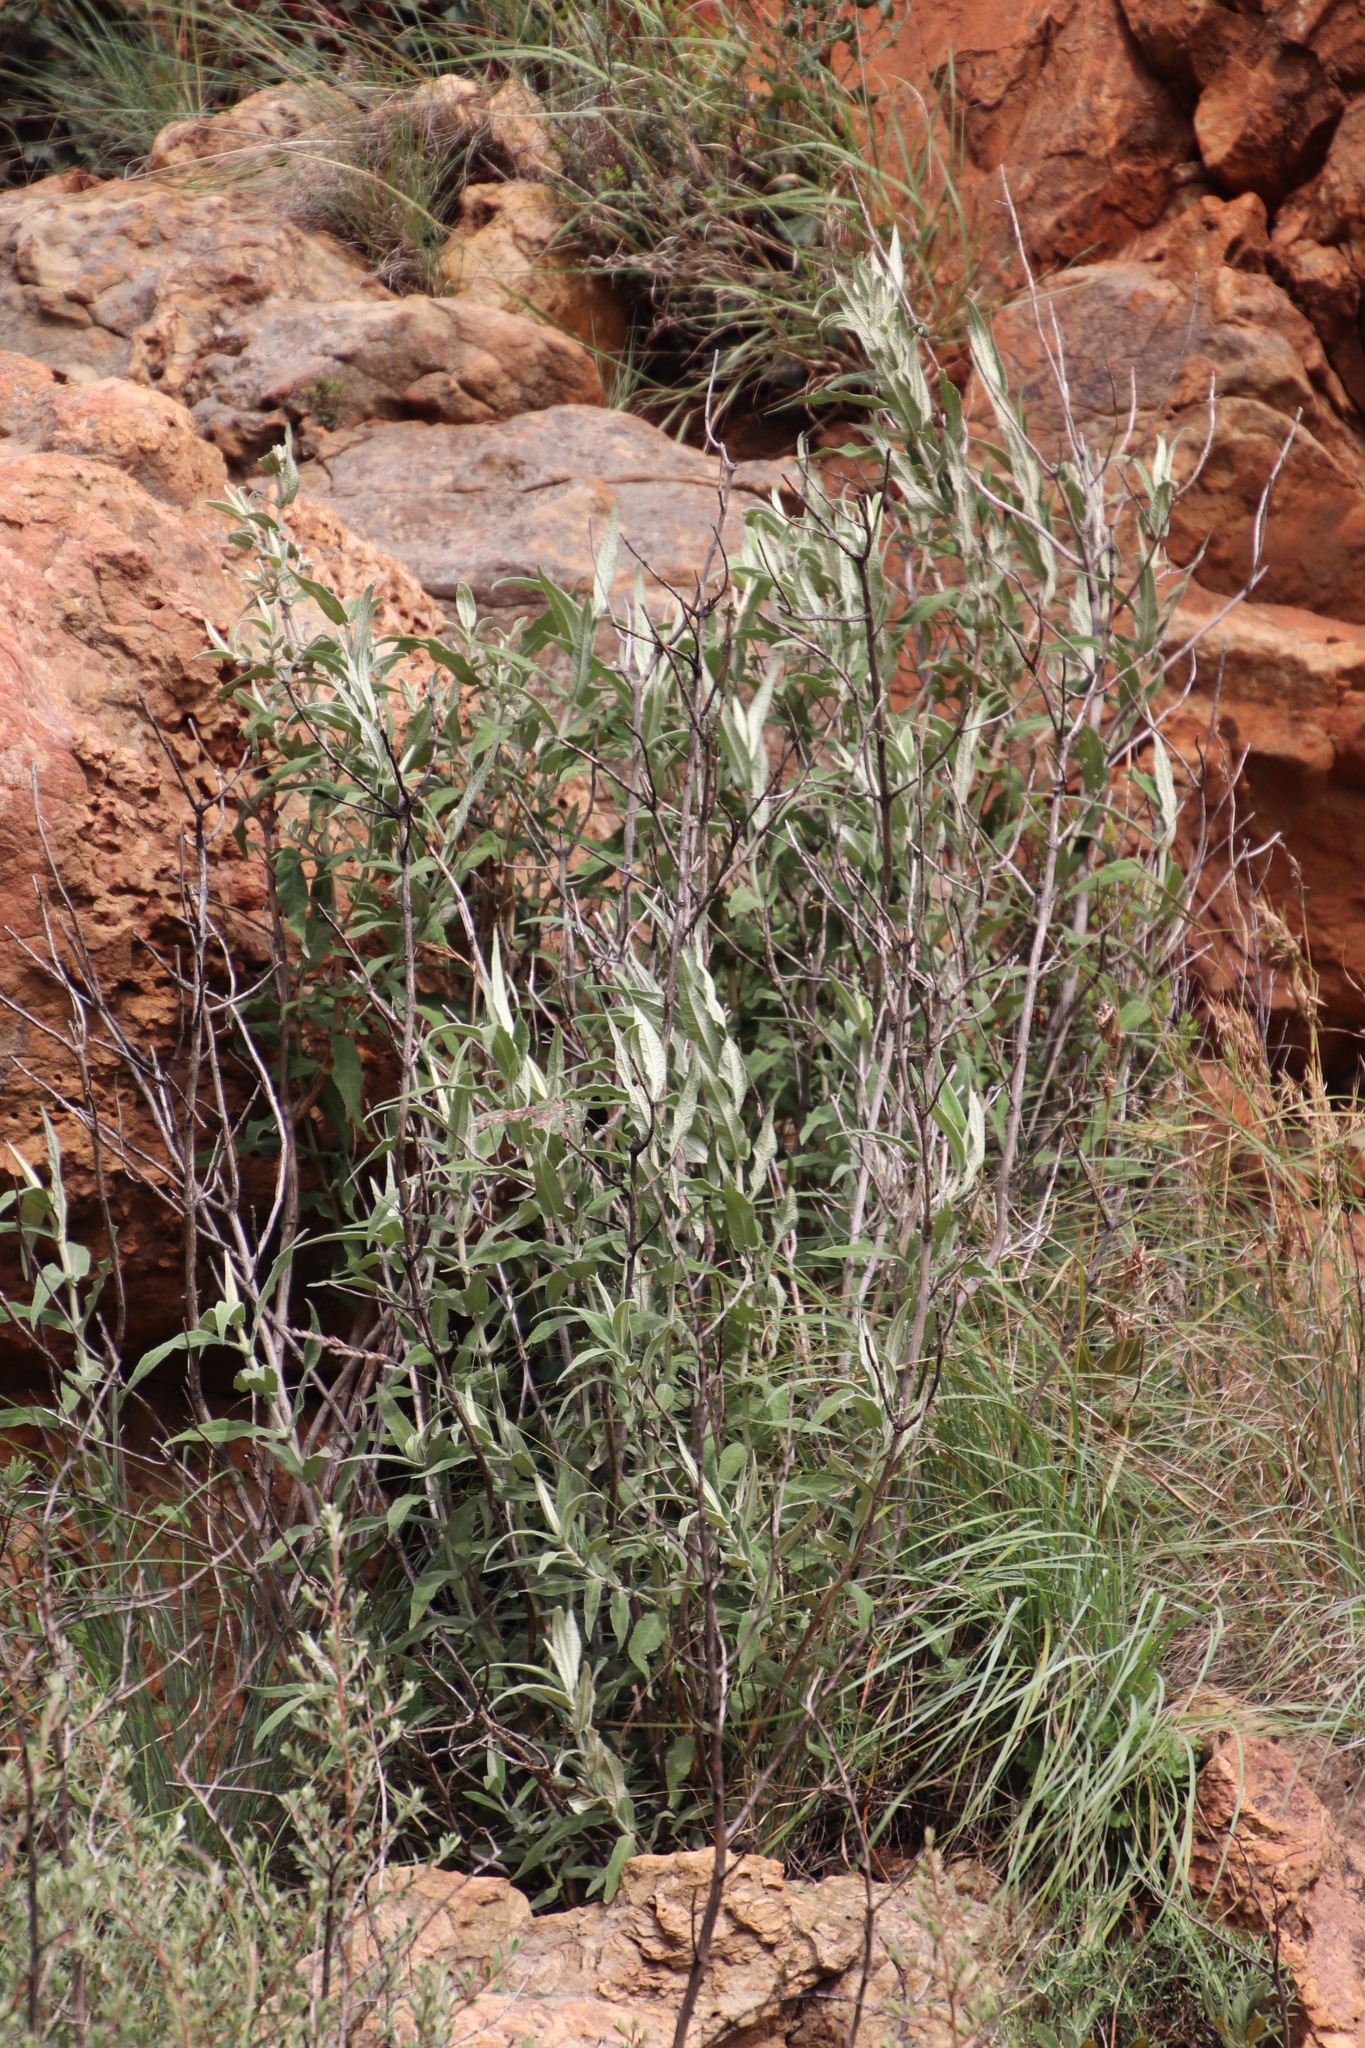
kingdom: Plantae
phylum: Tracheophyta
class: Magnoliopsida
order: Lamiales
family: Scrophulariaceae
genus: Buddleja
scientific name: Buddleja salviifolia
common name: Sagewood
